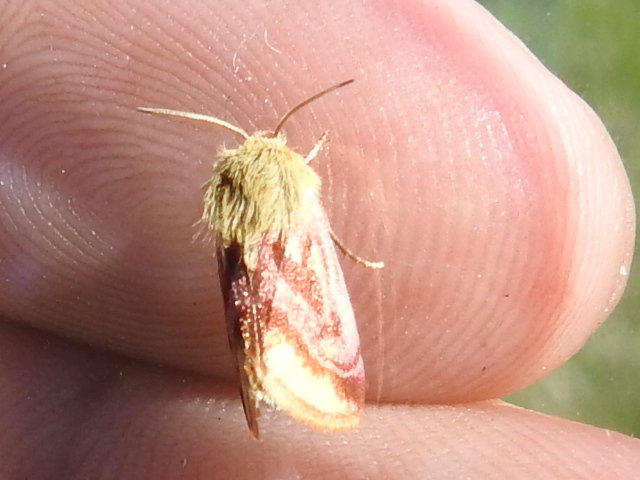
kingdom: Animalia
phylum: Arthropoda
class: Insecta
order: Lepidoptera
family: Noctuidae
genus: Schinia
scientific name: Schinia mitis
